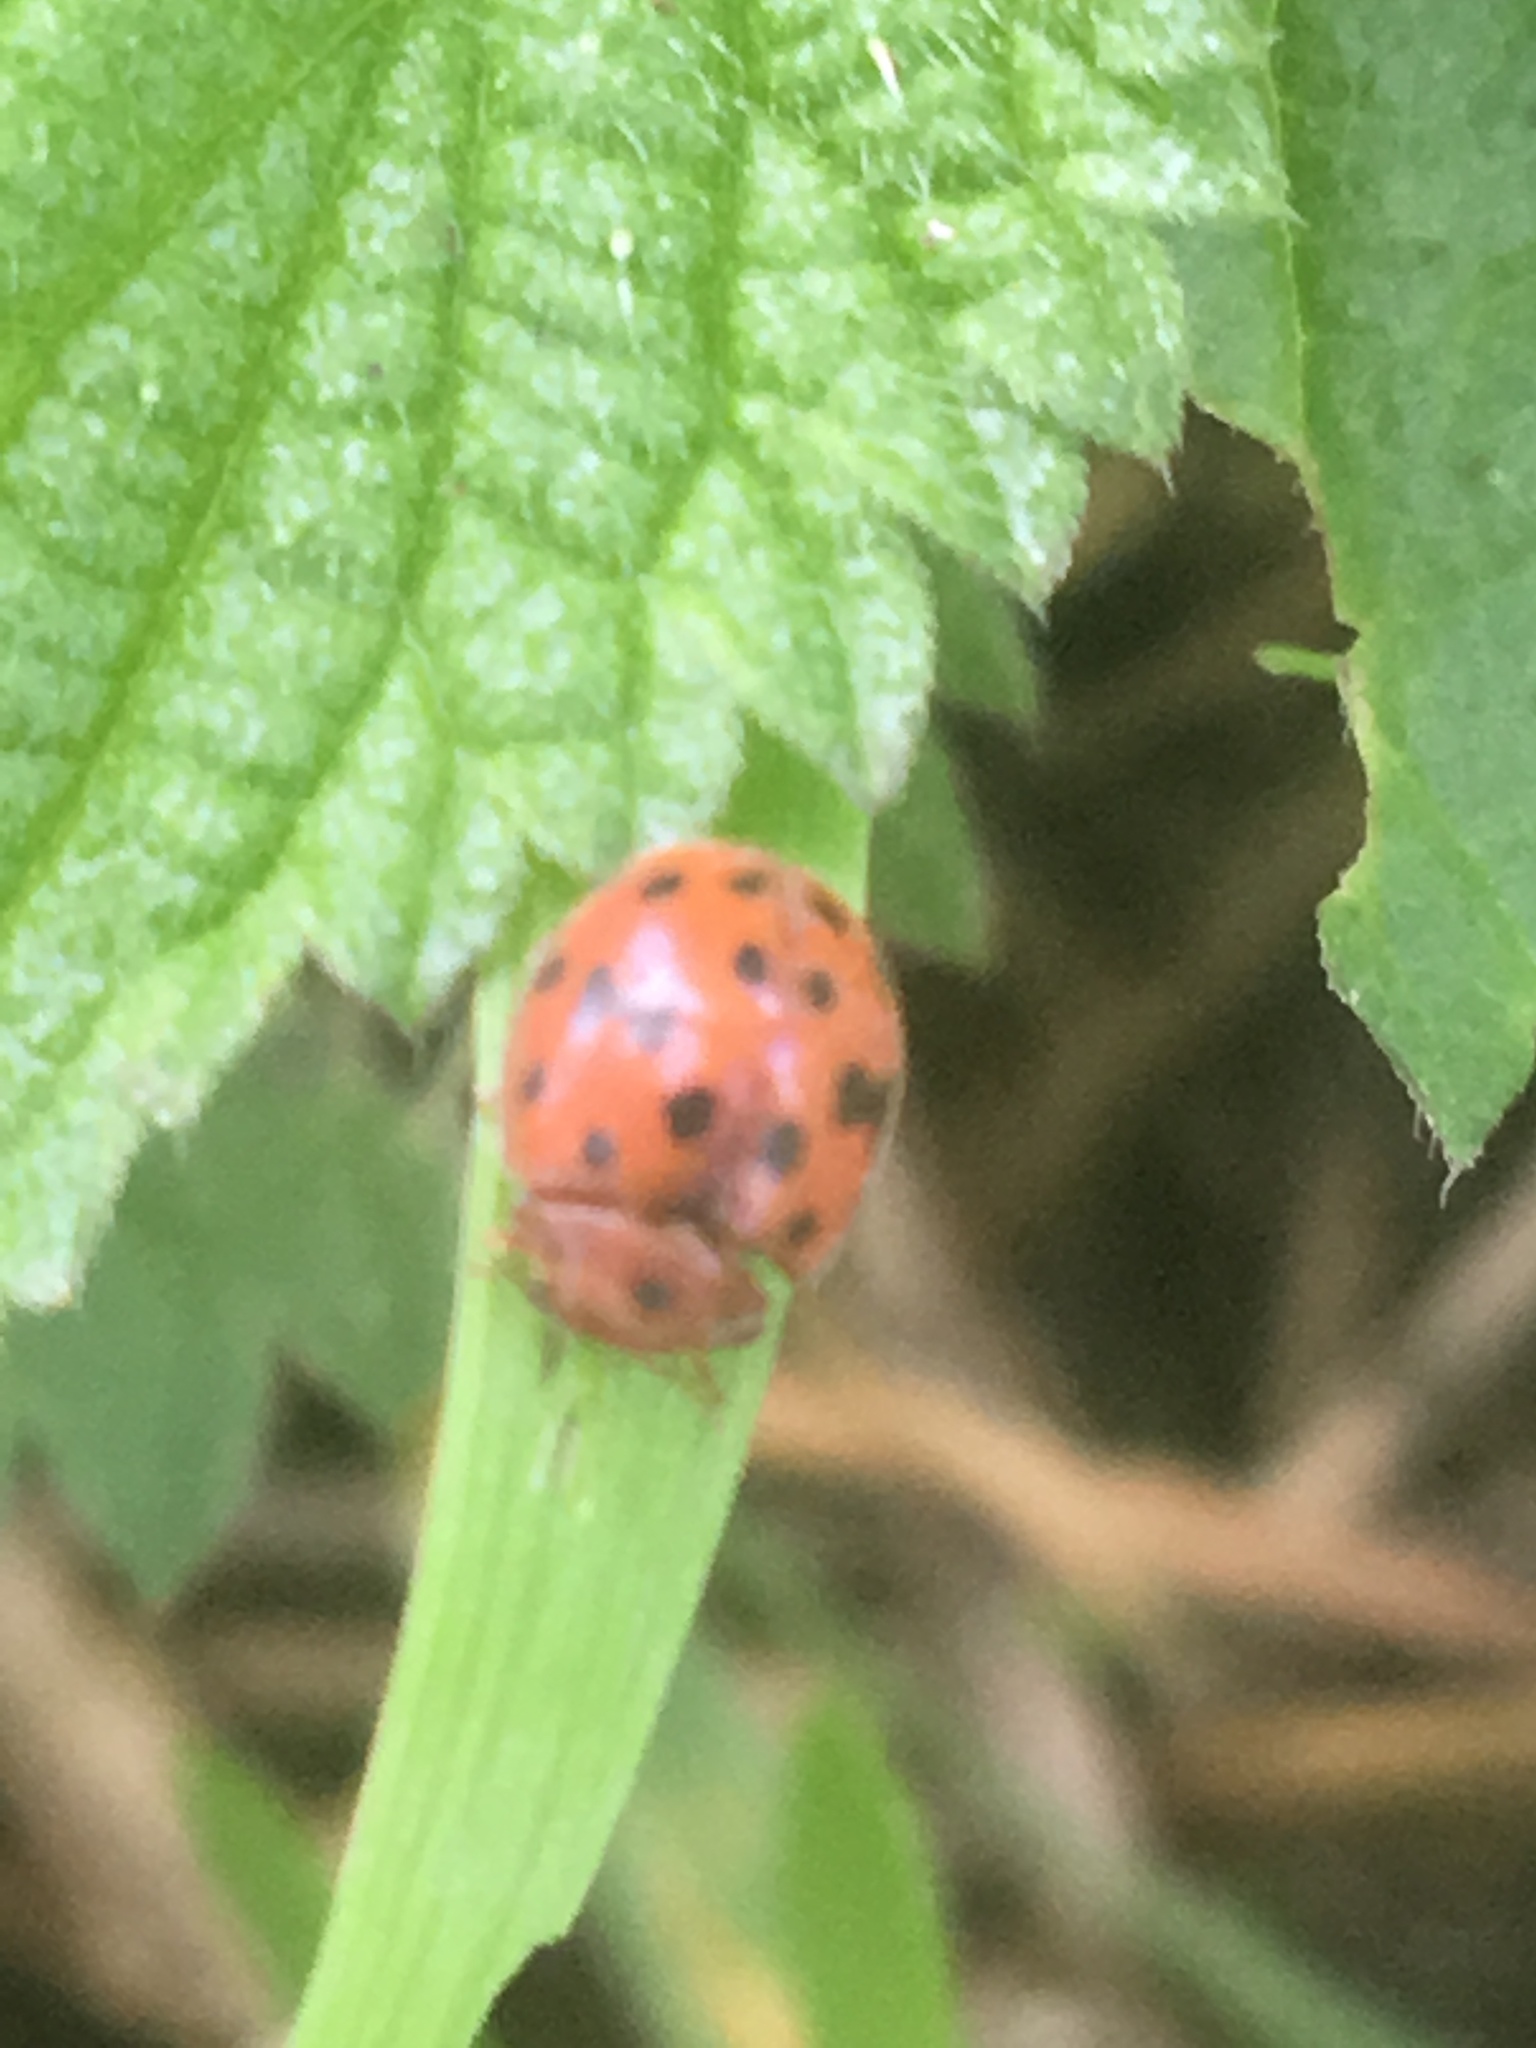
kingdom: Animalia
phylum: Arthropoda
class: Insecta
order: Coleoptera
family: Coccinellidae
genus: Subcoccinella
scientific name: Subcoccinella vigintiquatuorpunctata
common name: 24-spot ladybird
